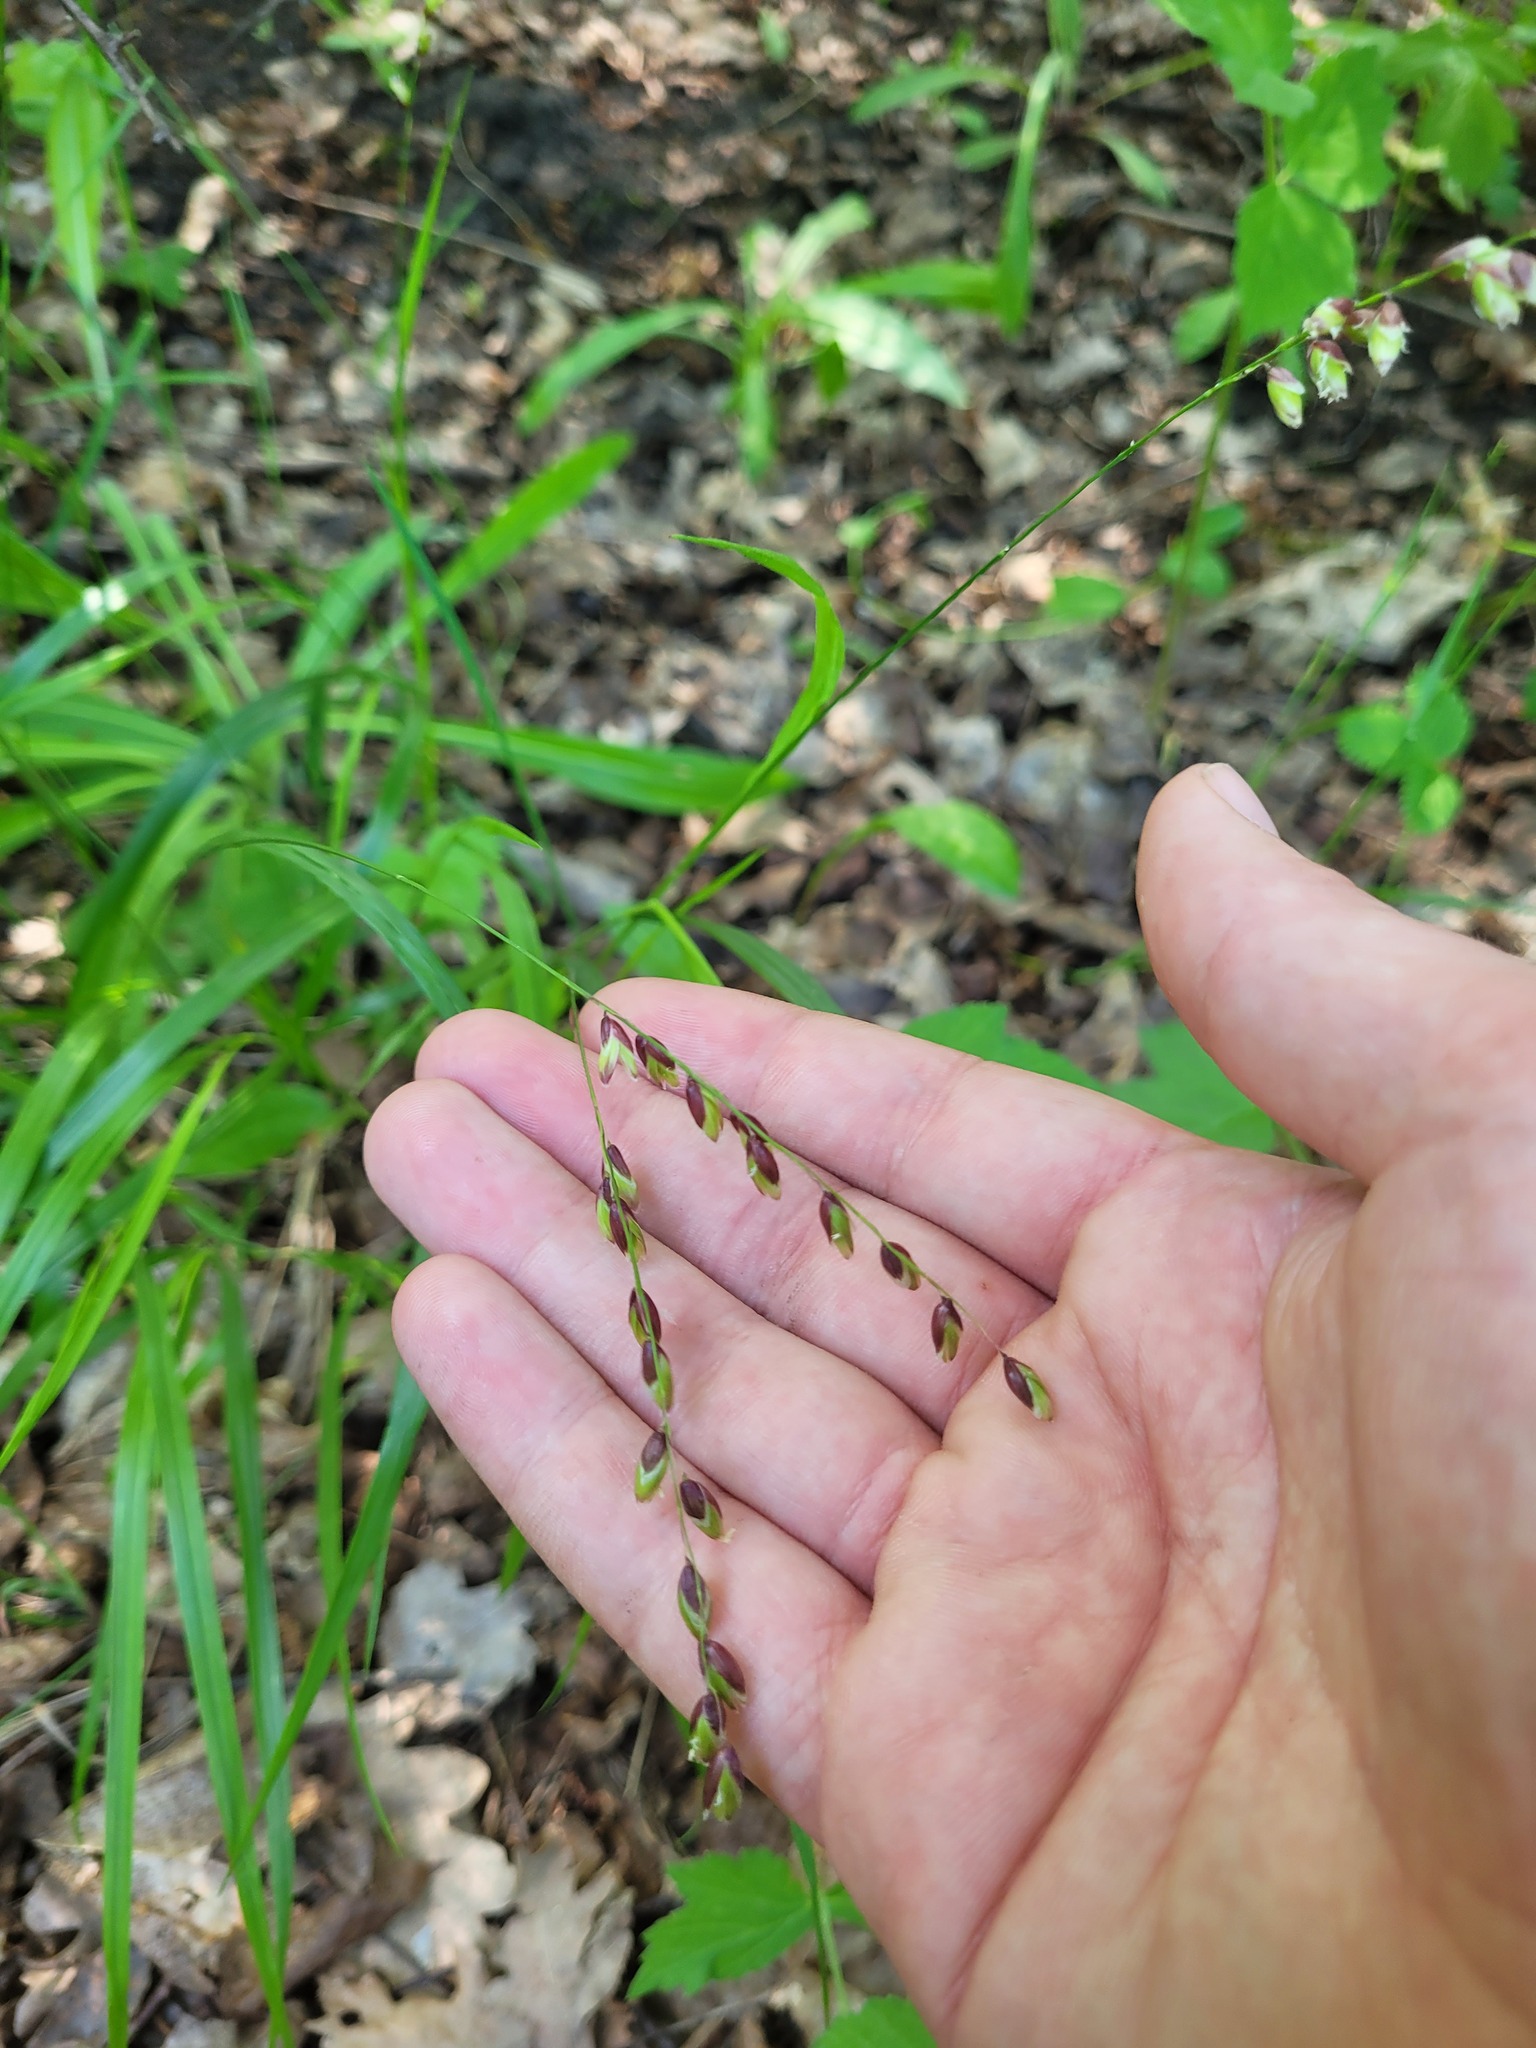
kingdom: Plantae
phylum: Tracheophyta
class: Liliopsida
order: Poales
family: Poaceae
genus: Melica
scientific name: Melica nutans
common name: Mountain melick
